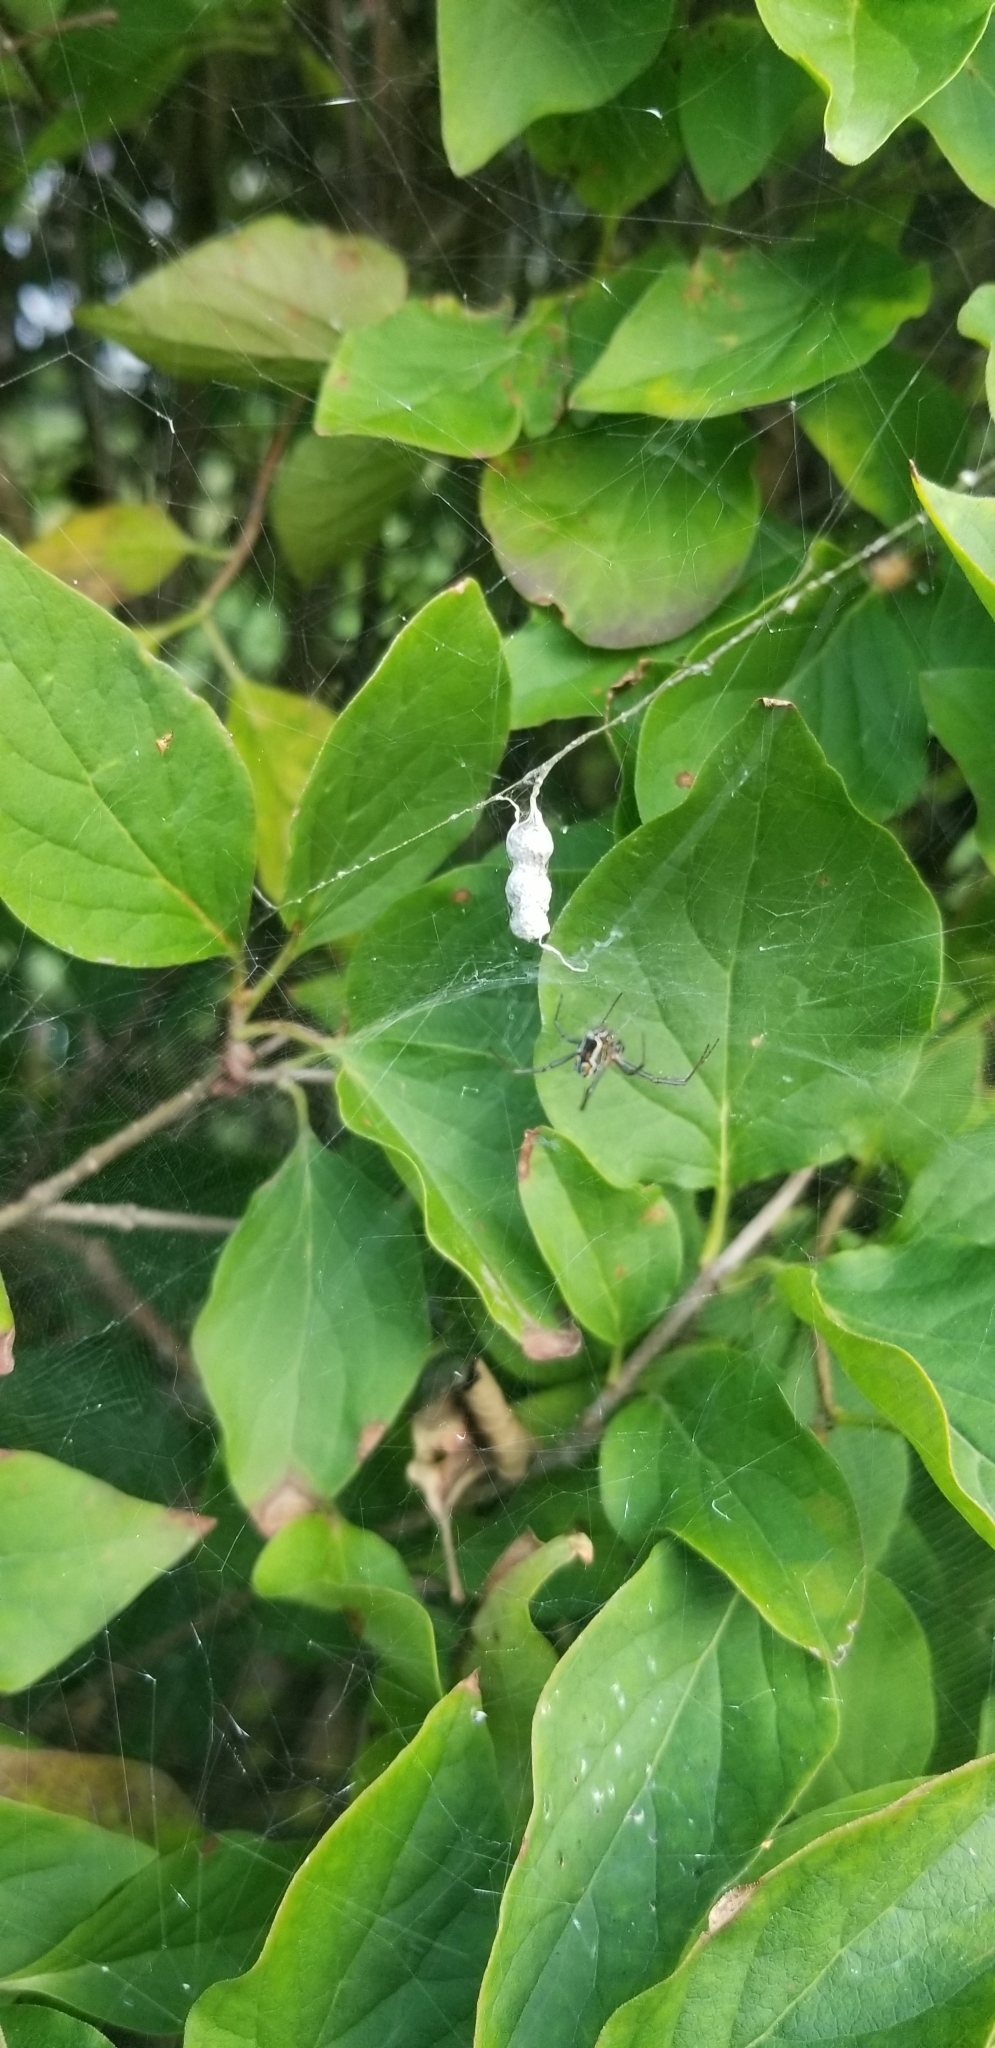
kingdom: Animalia
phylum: Arthropoda
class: Arachnida
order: Araneae
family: Araneidae
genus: Mecynogea
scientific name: Mecynogea lemniscata
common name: Orb weavers
